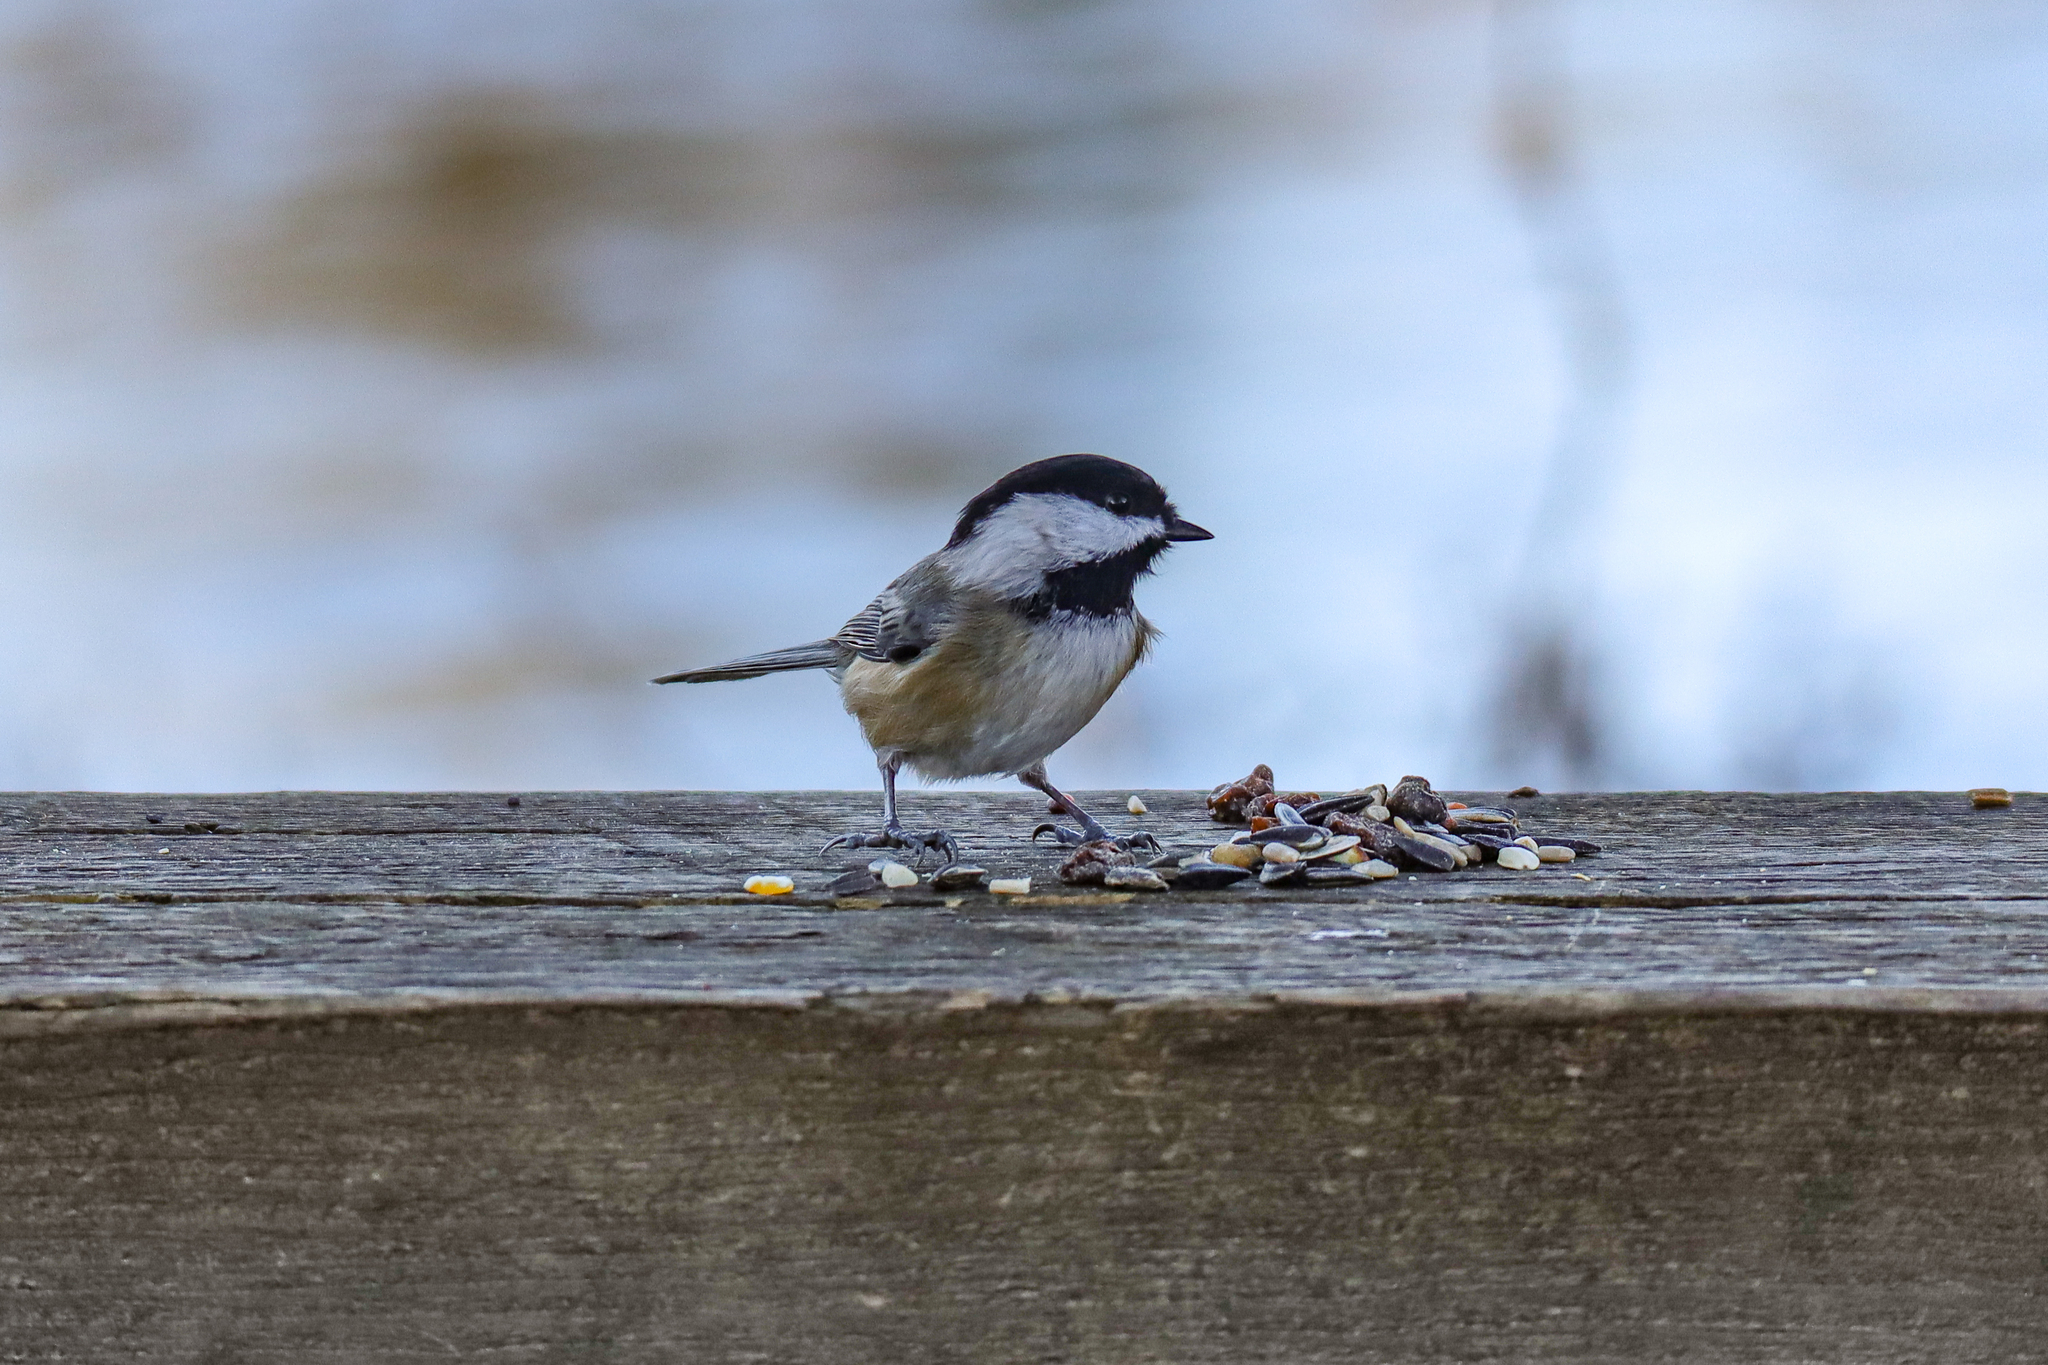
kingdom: Animalia
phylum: Chordata
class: Aves
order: Passeriformes
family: Paridae
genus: Poecile
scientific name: Poecile atricapillus
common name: Black-capped chickadee
